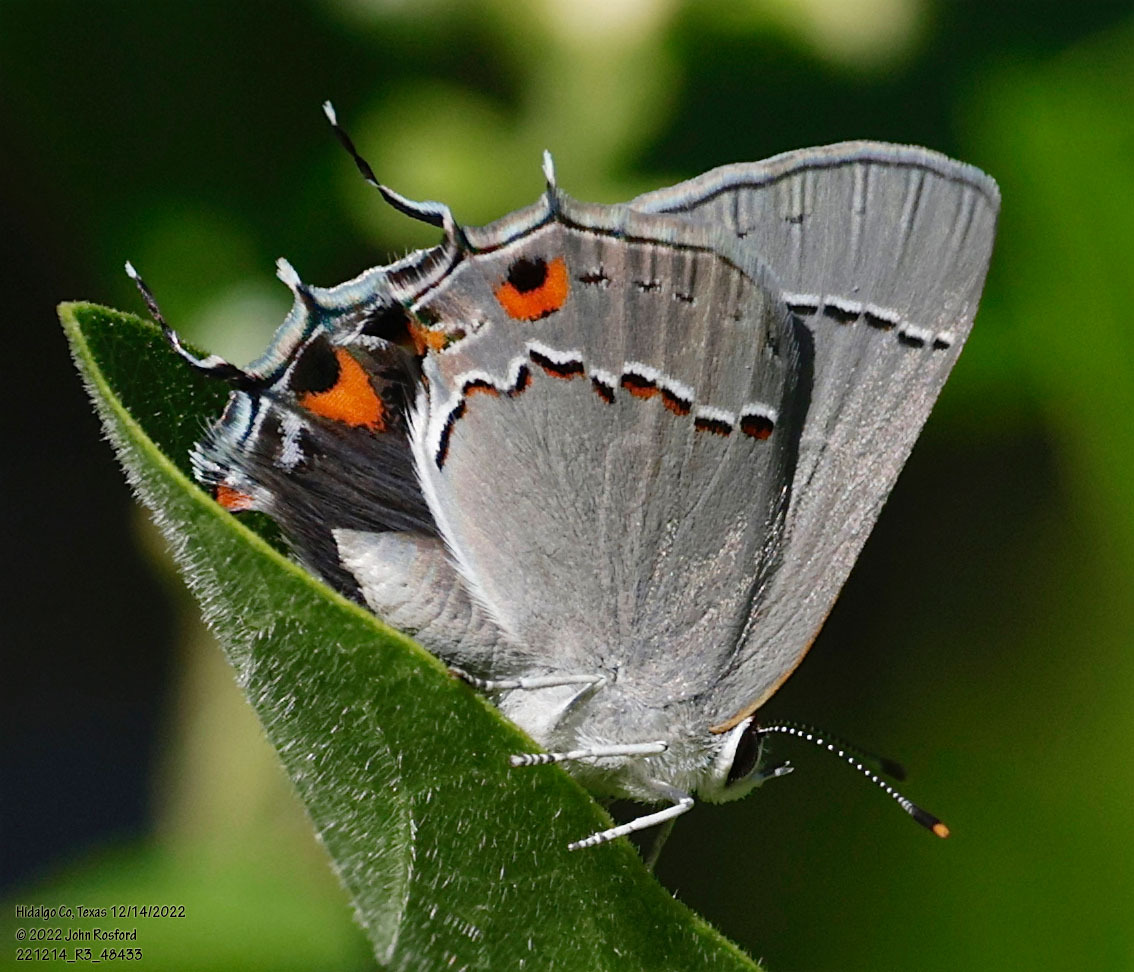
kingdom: Animalia
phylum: Arthropoda
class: Insecta
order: Lepidoptera
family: Lycaenidae
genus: Strymon
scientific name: Strymon melinus
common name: Gray hairstreak
